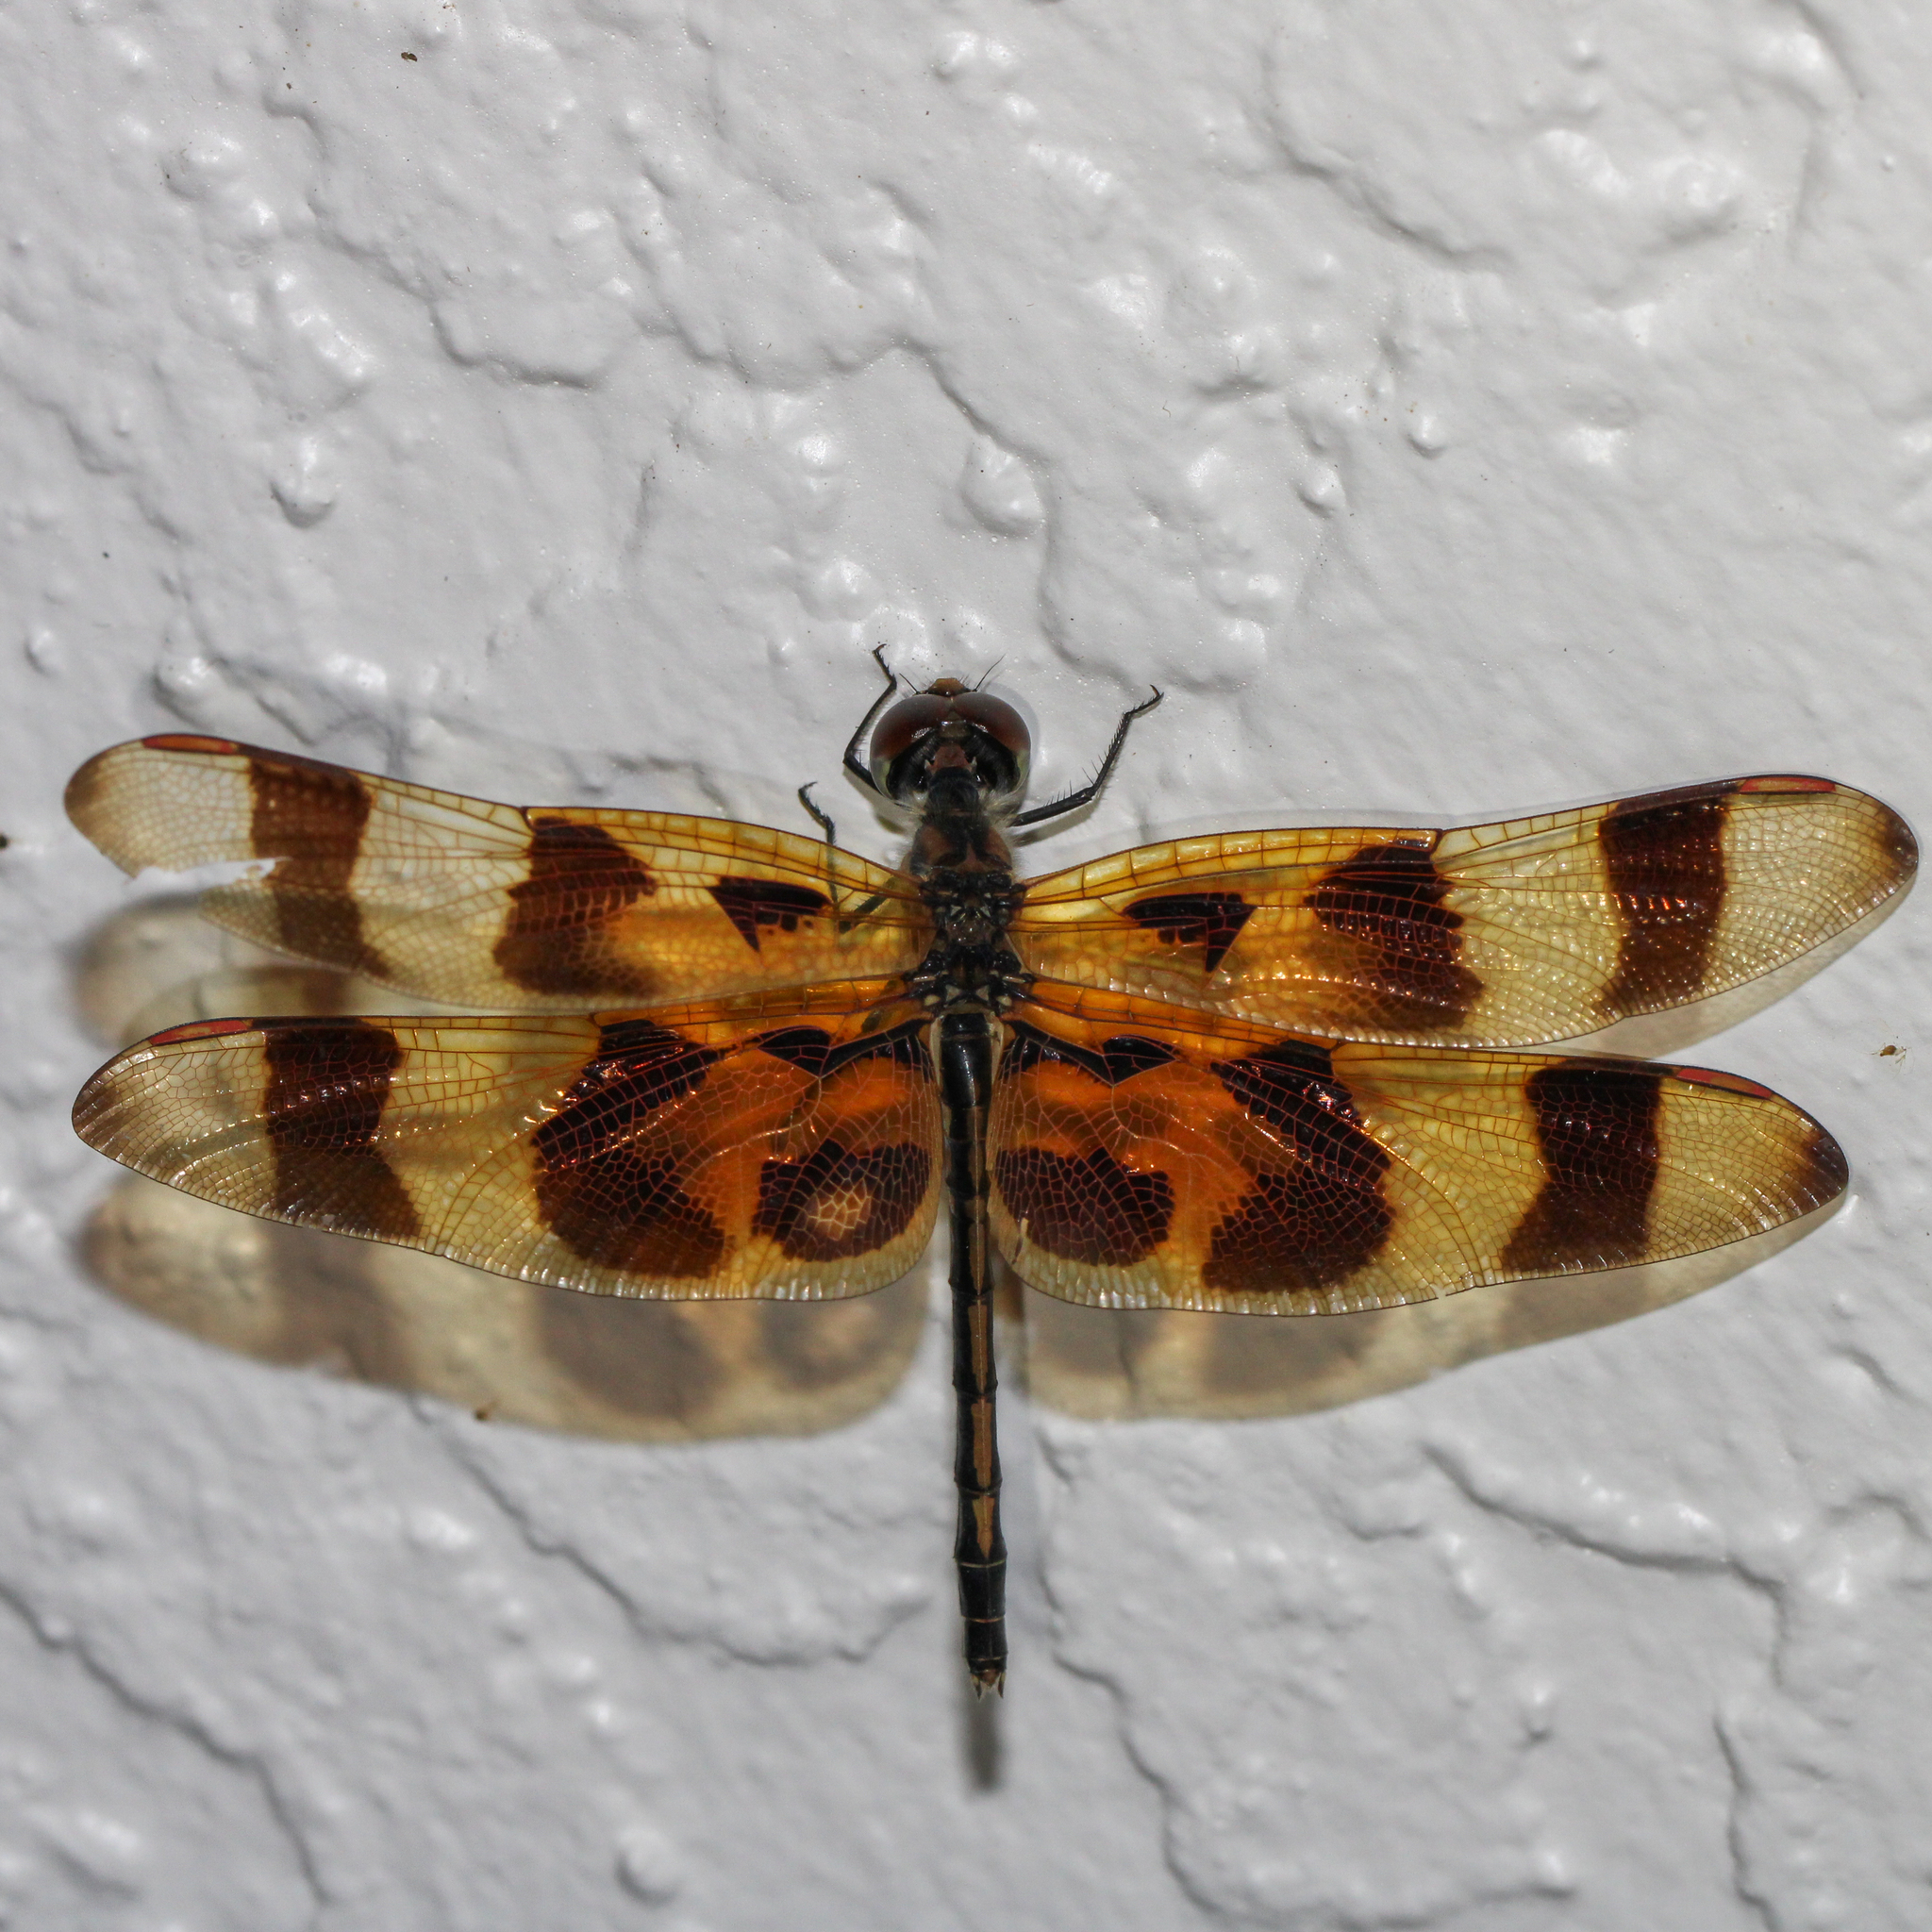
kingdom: Animalia
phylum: Arthropoda
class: Insecta
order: Odonata
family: Libellulidae
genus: Celithemis
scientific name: Celithemis eponina
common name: Halloween pennant
